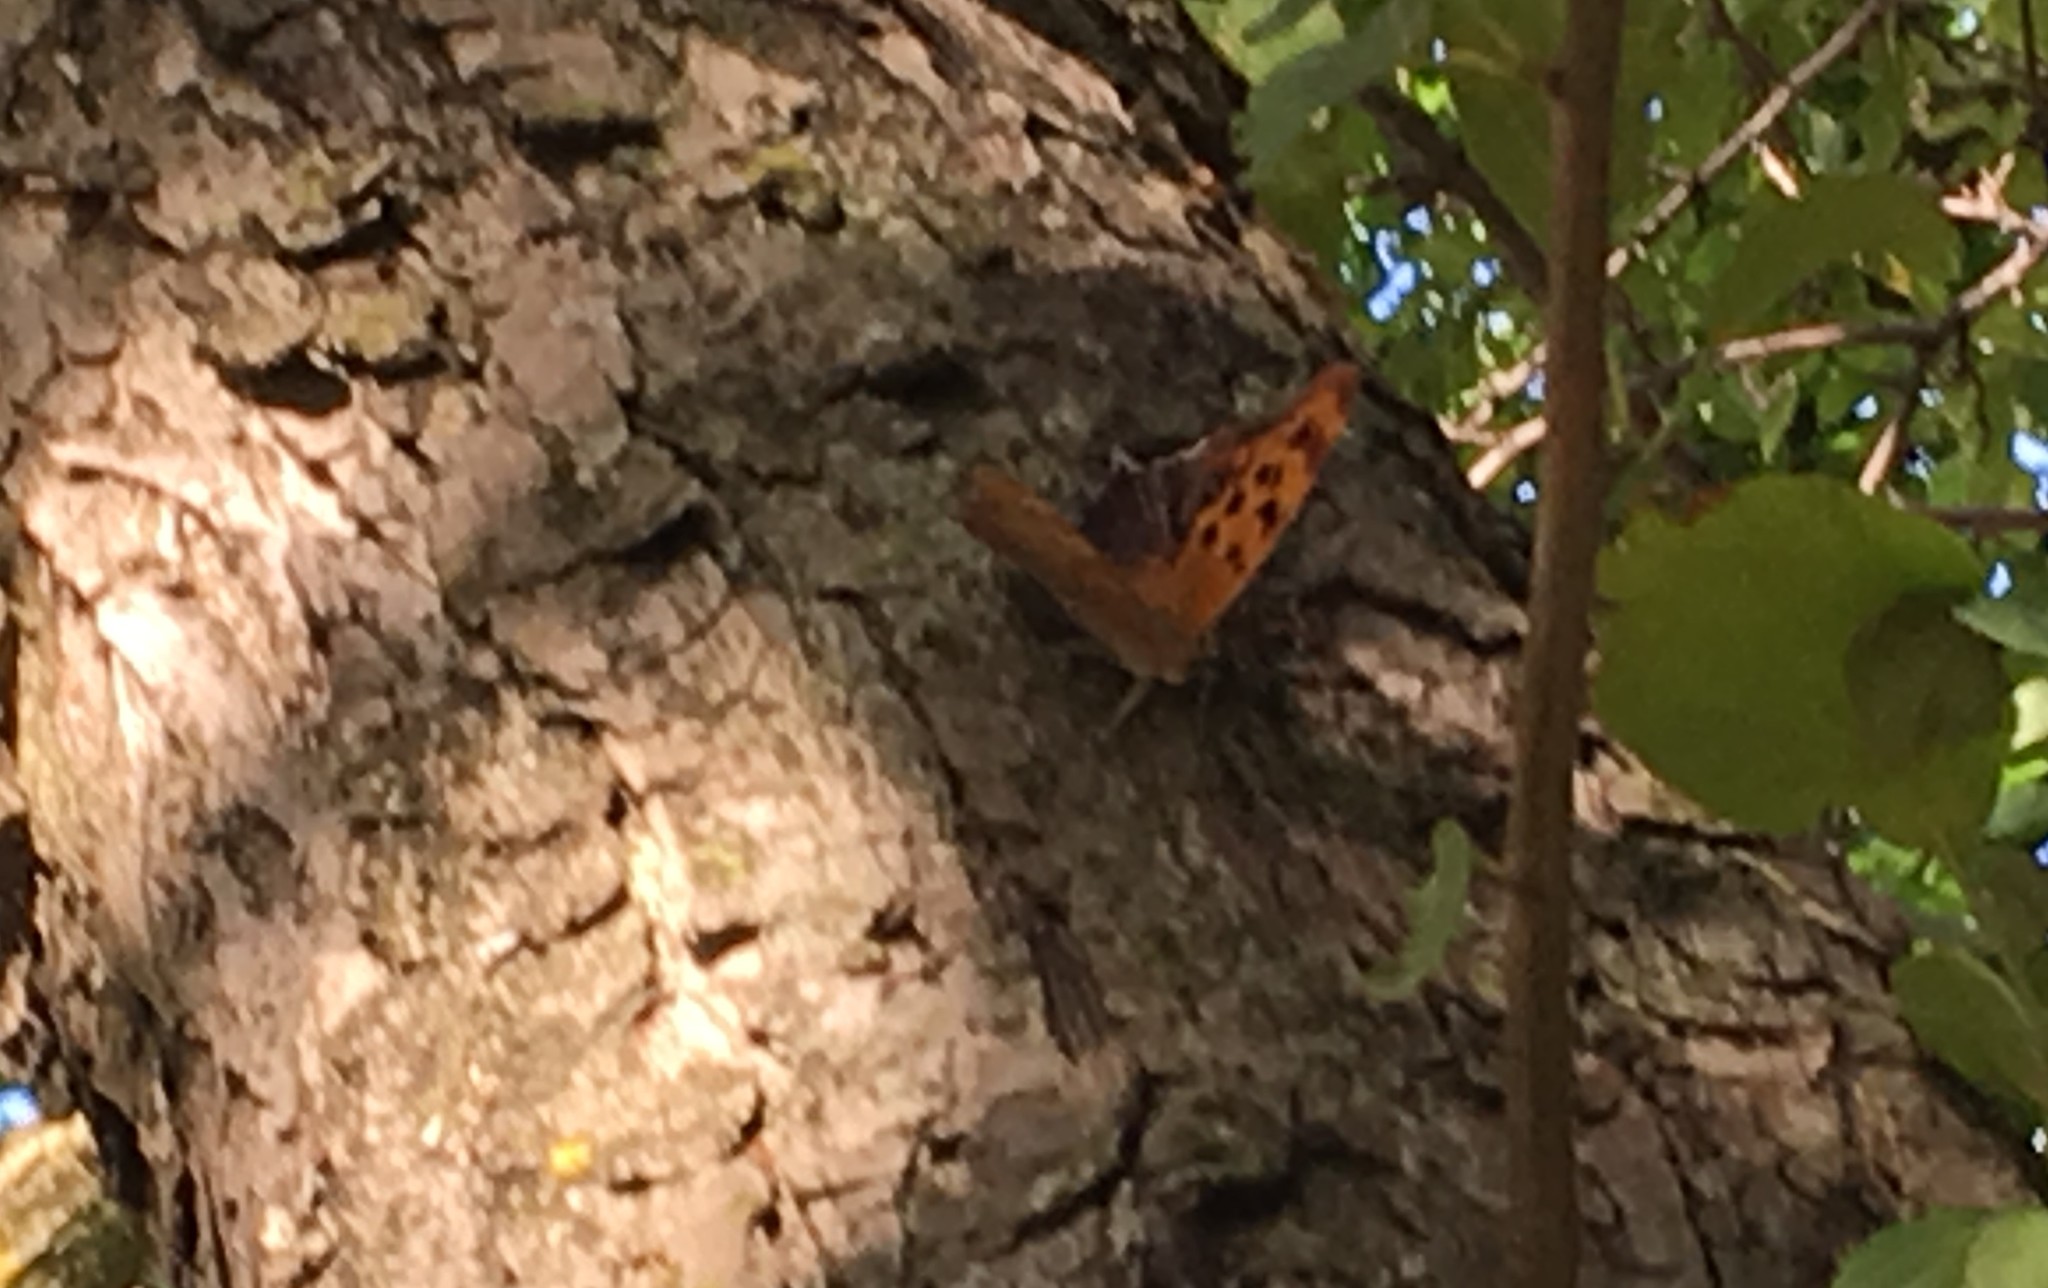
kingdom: Animalia
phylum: Arthropoda
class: Insecta
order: Lepidoptera
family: Nymphalidae
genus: Polygonia
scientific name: Polygonia interrogationis
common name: Question mark
